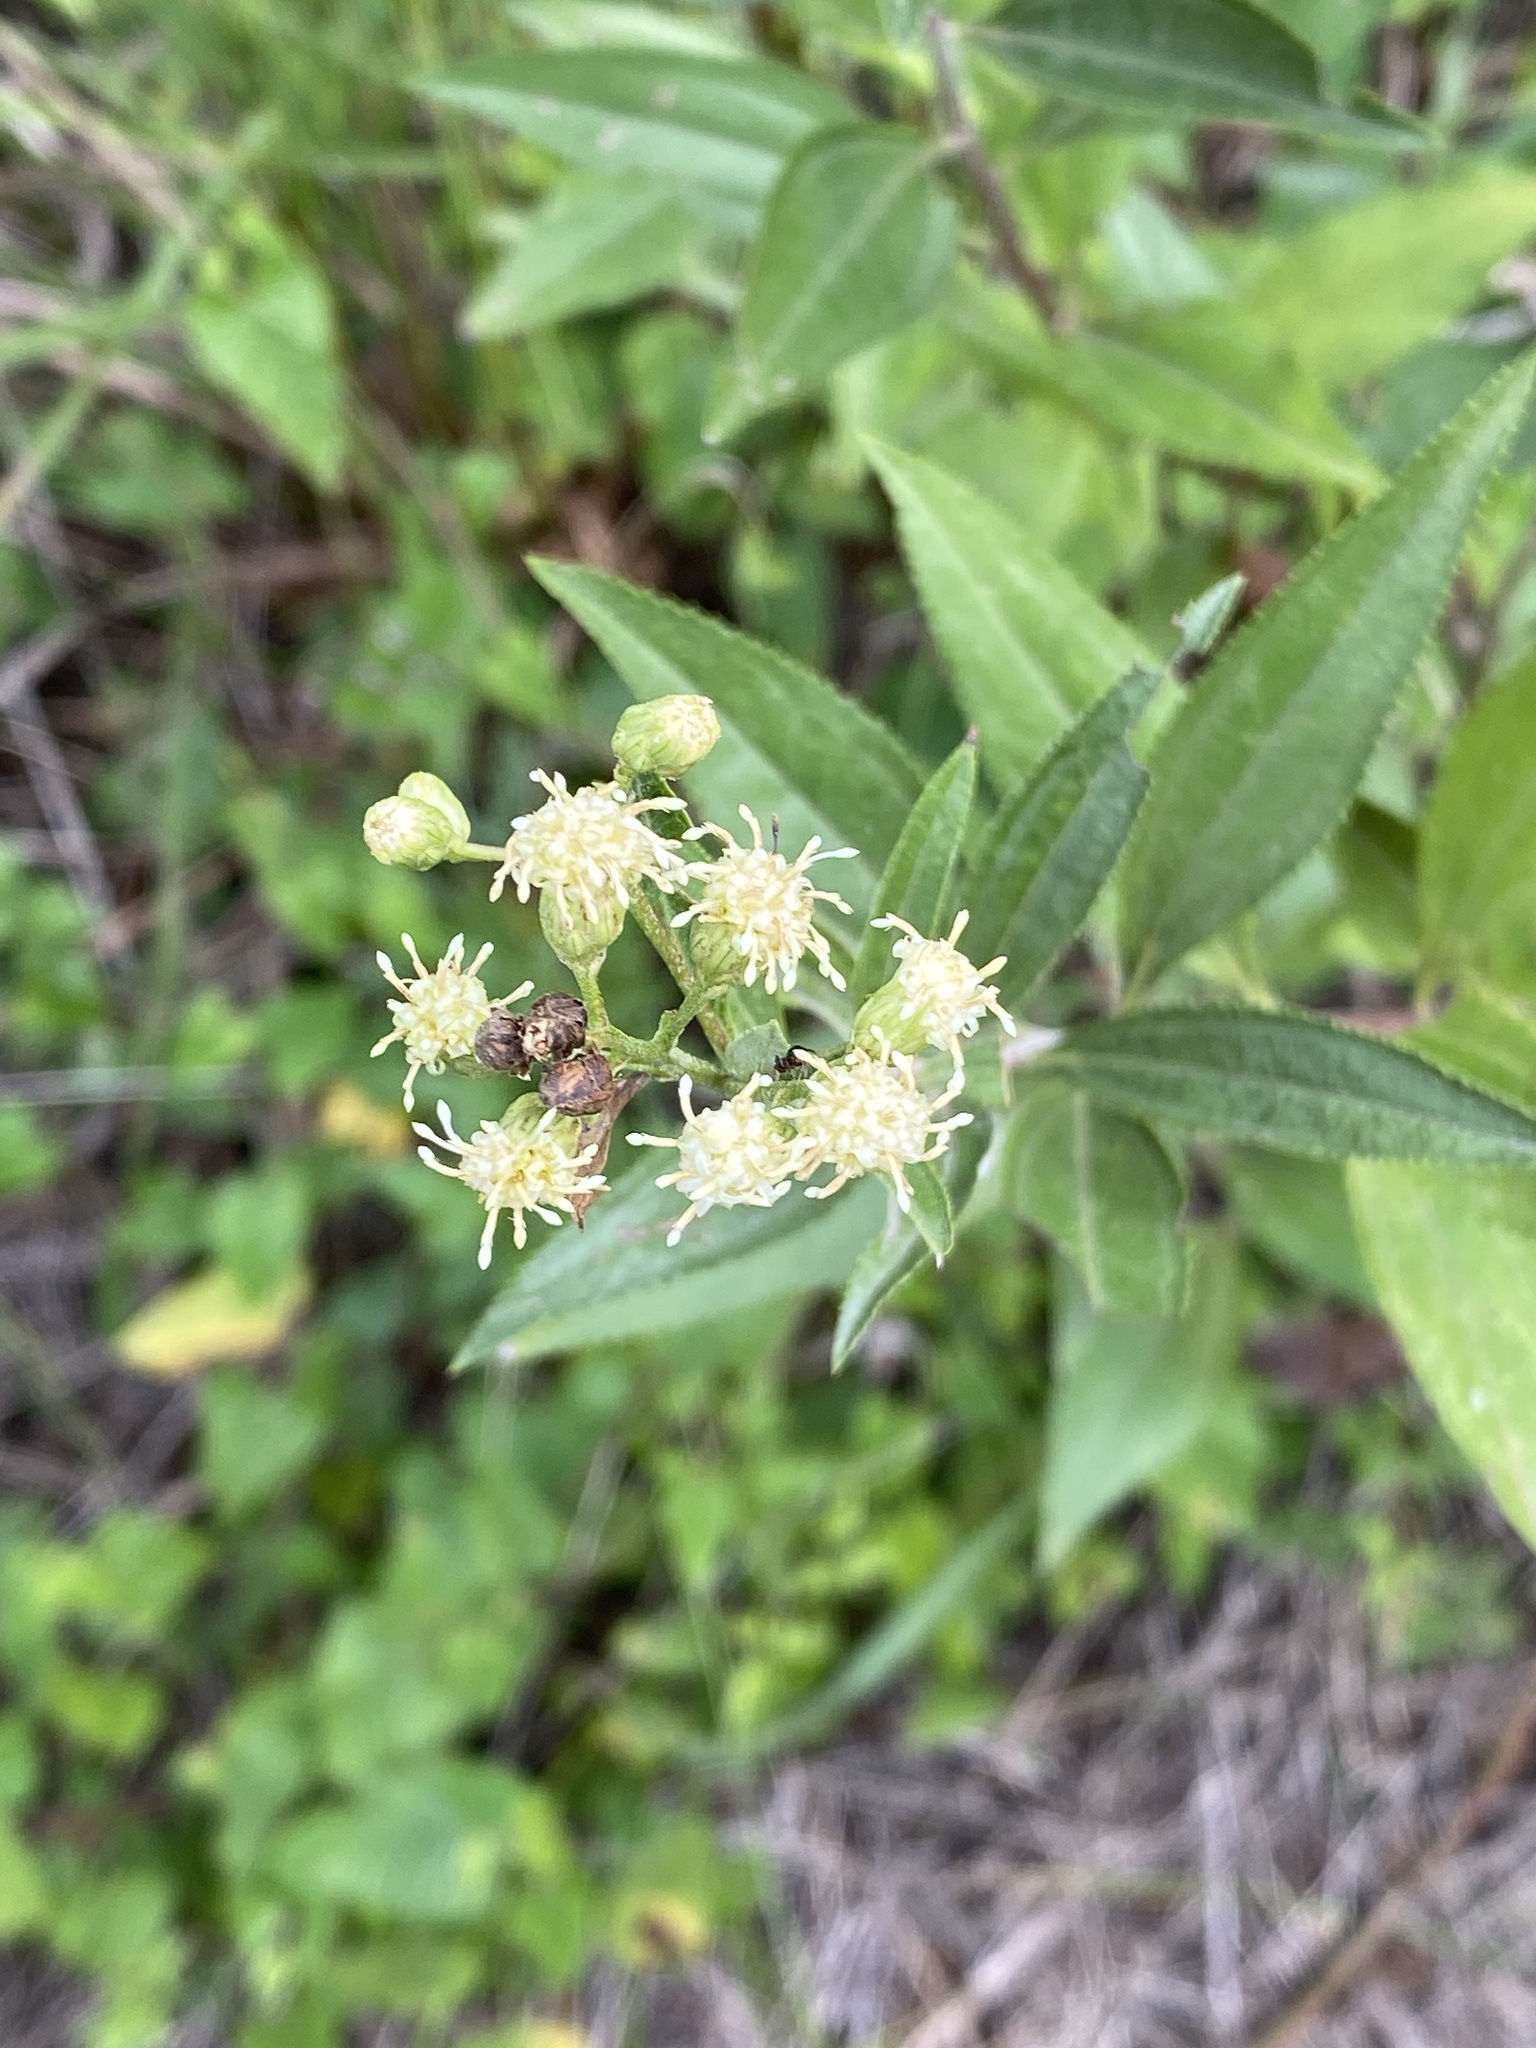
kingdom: Plantae
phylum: Tracheophyta
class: Magnoliopsida
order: Asterales
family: Asteraceae
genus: Chromolaena
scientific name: Chromolaena ivifolia
